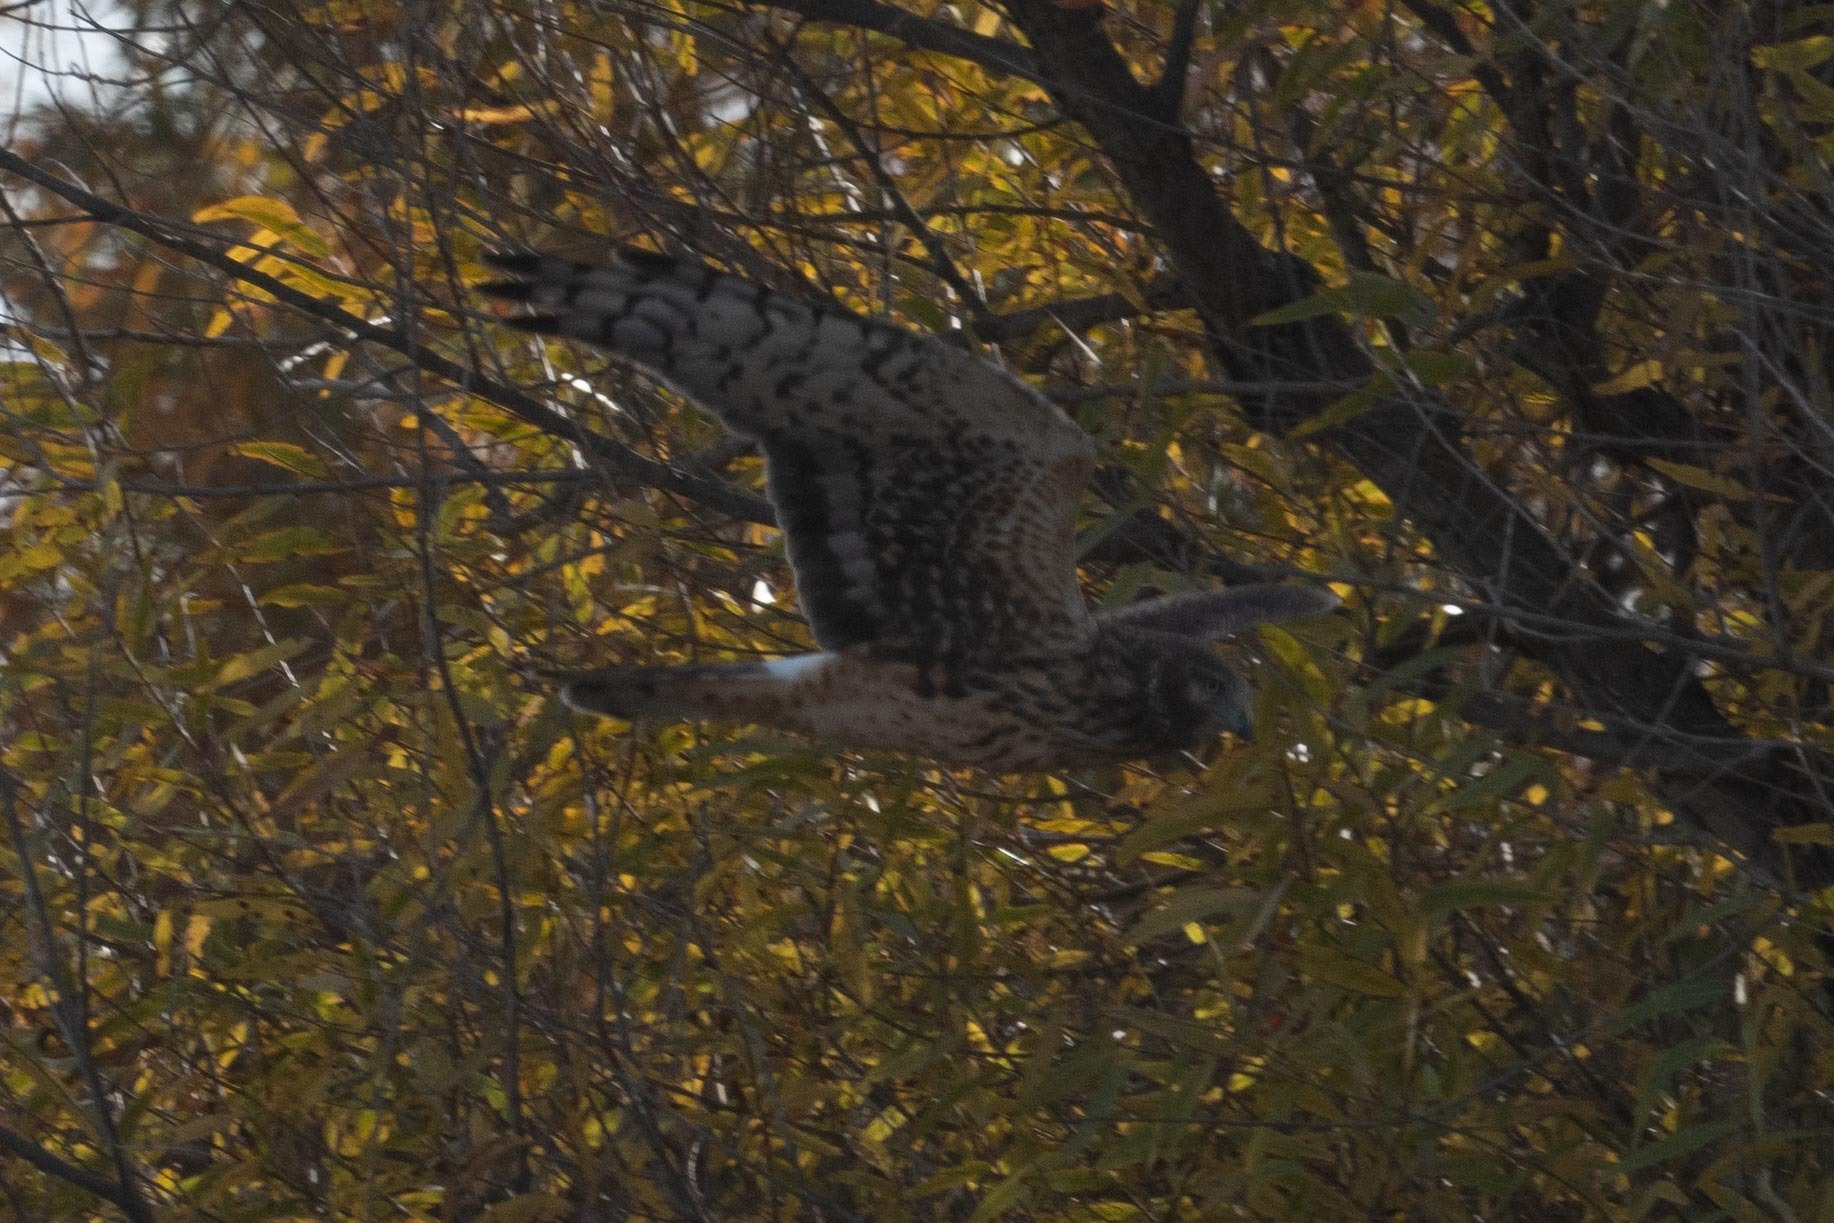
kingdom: Animalia
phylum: Chordata
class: Aves
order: Accipitriformes
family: Accipitridae
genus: Circus
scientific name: Circus cyaneus
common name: Hen harrier
